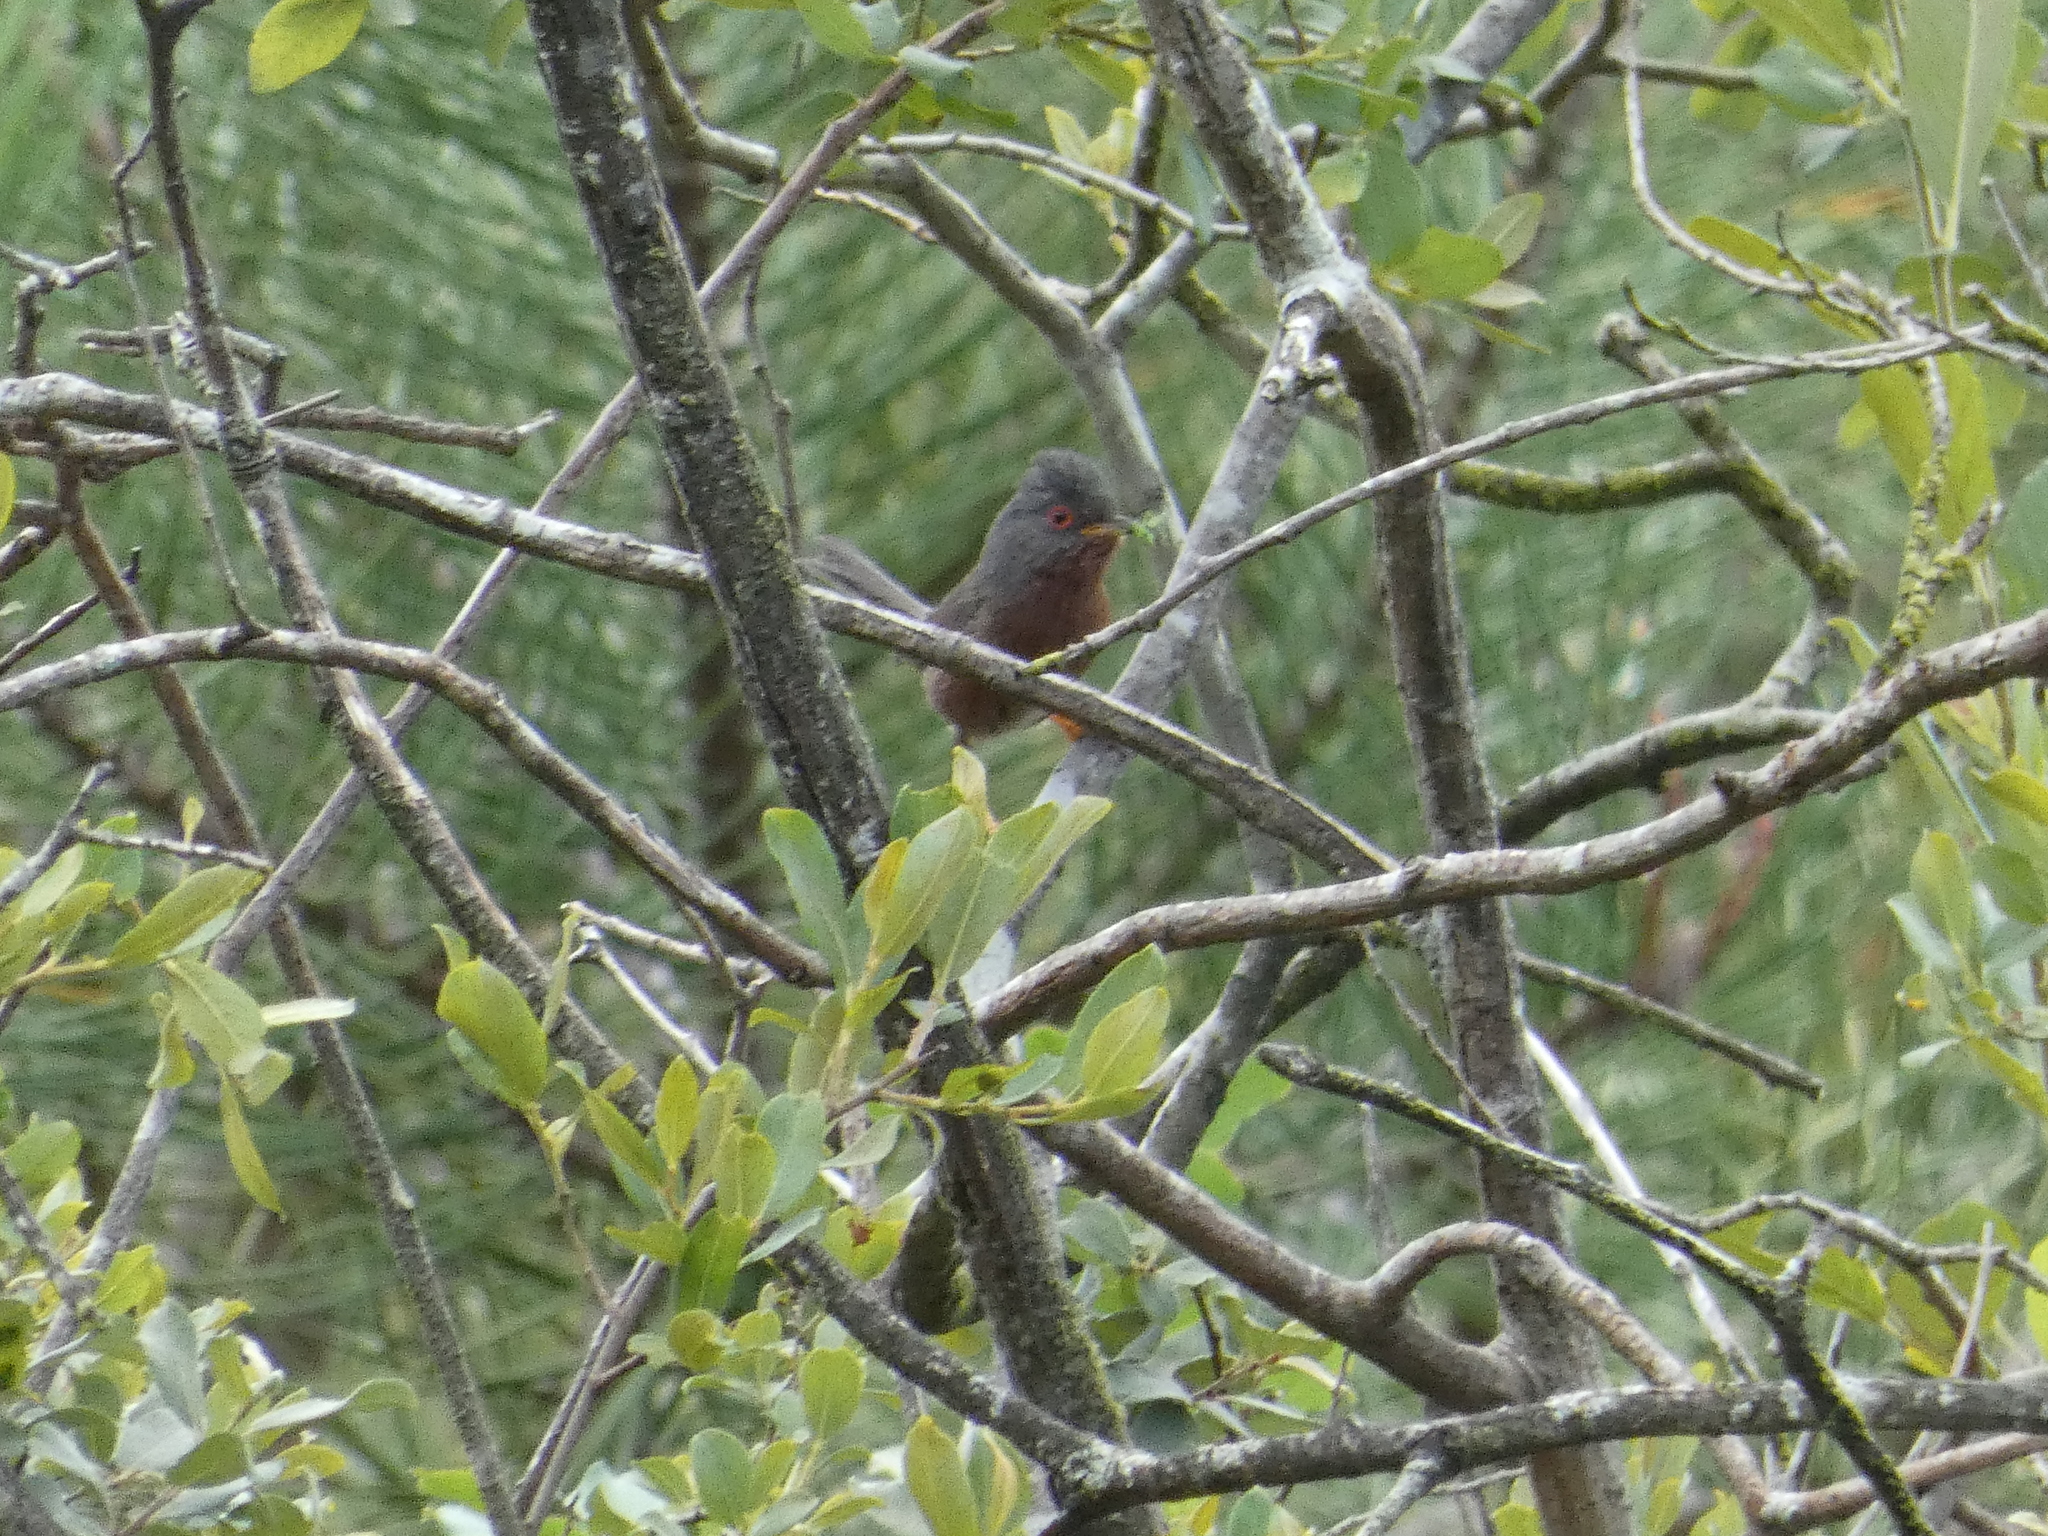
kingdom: Animalia
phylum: Chordata
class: Aves
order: Passeriformes
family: Sylviidae
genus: Sylvia
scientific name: Sylvia undata
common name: Dartford warbler
